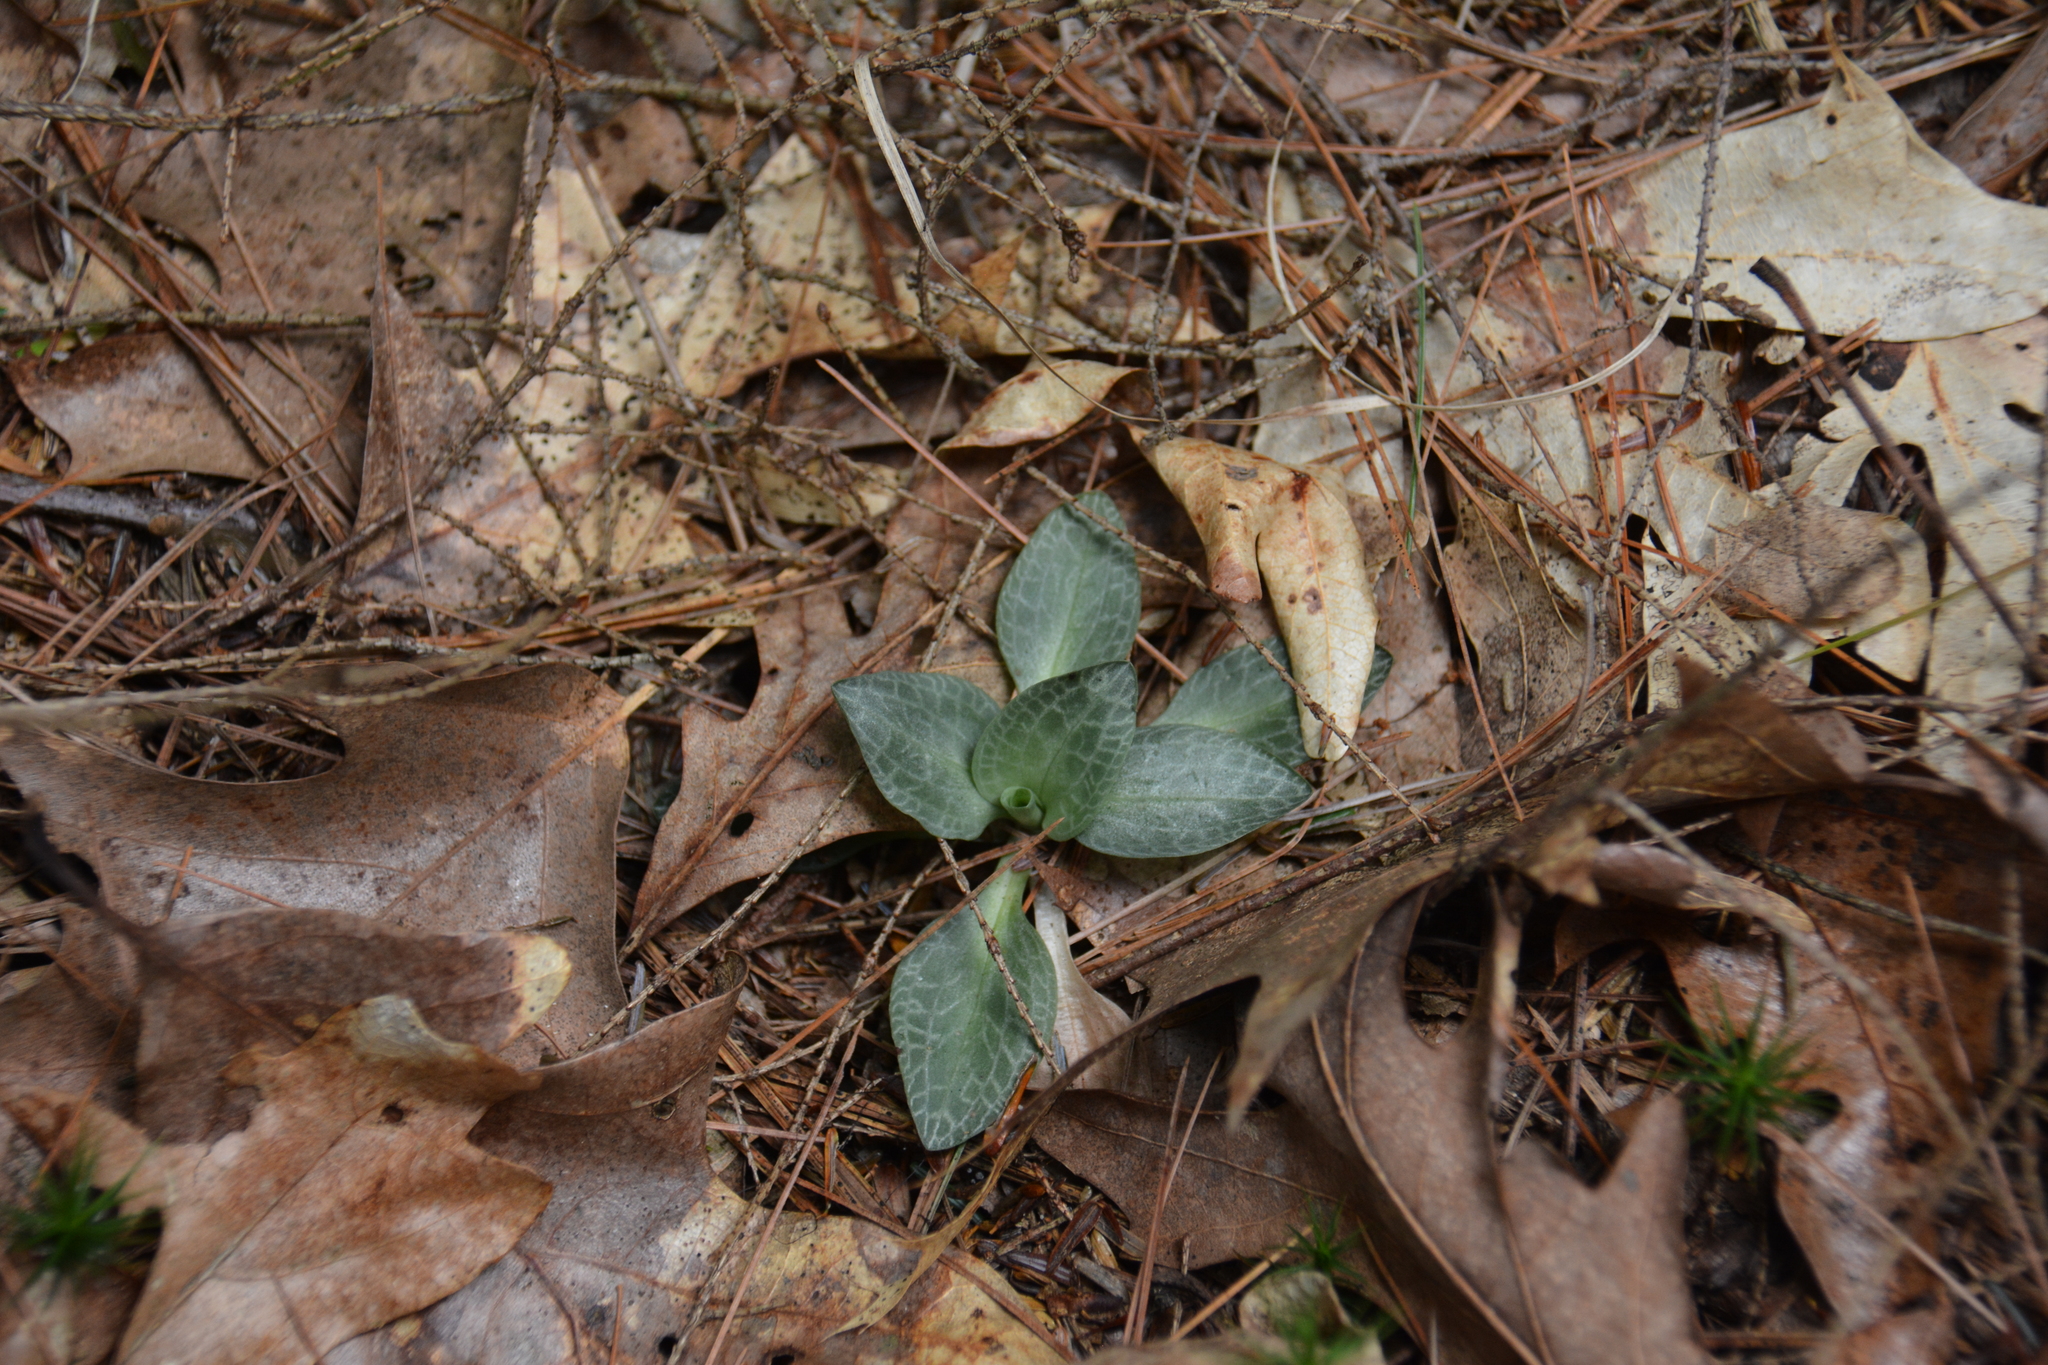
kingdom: Plantae
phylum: Tracheophyta
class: Liliopsida
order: Asparagales
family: Orchidaceae
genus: Goodyera
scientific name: Goodyera tesselata
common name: Checkered rattlesnake-plantain
